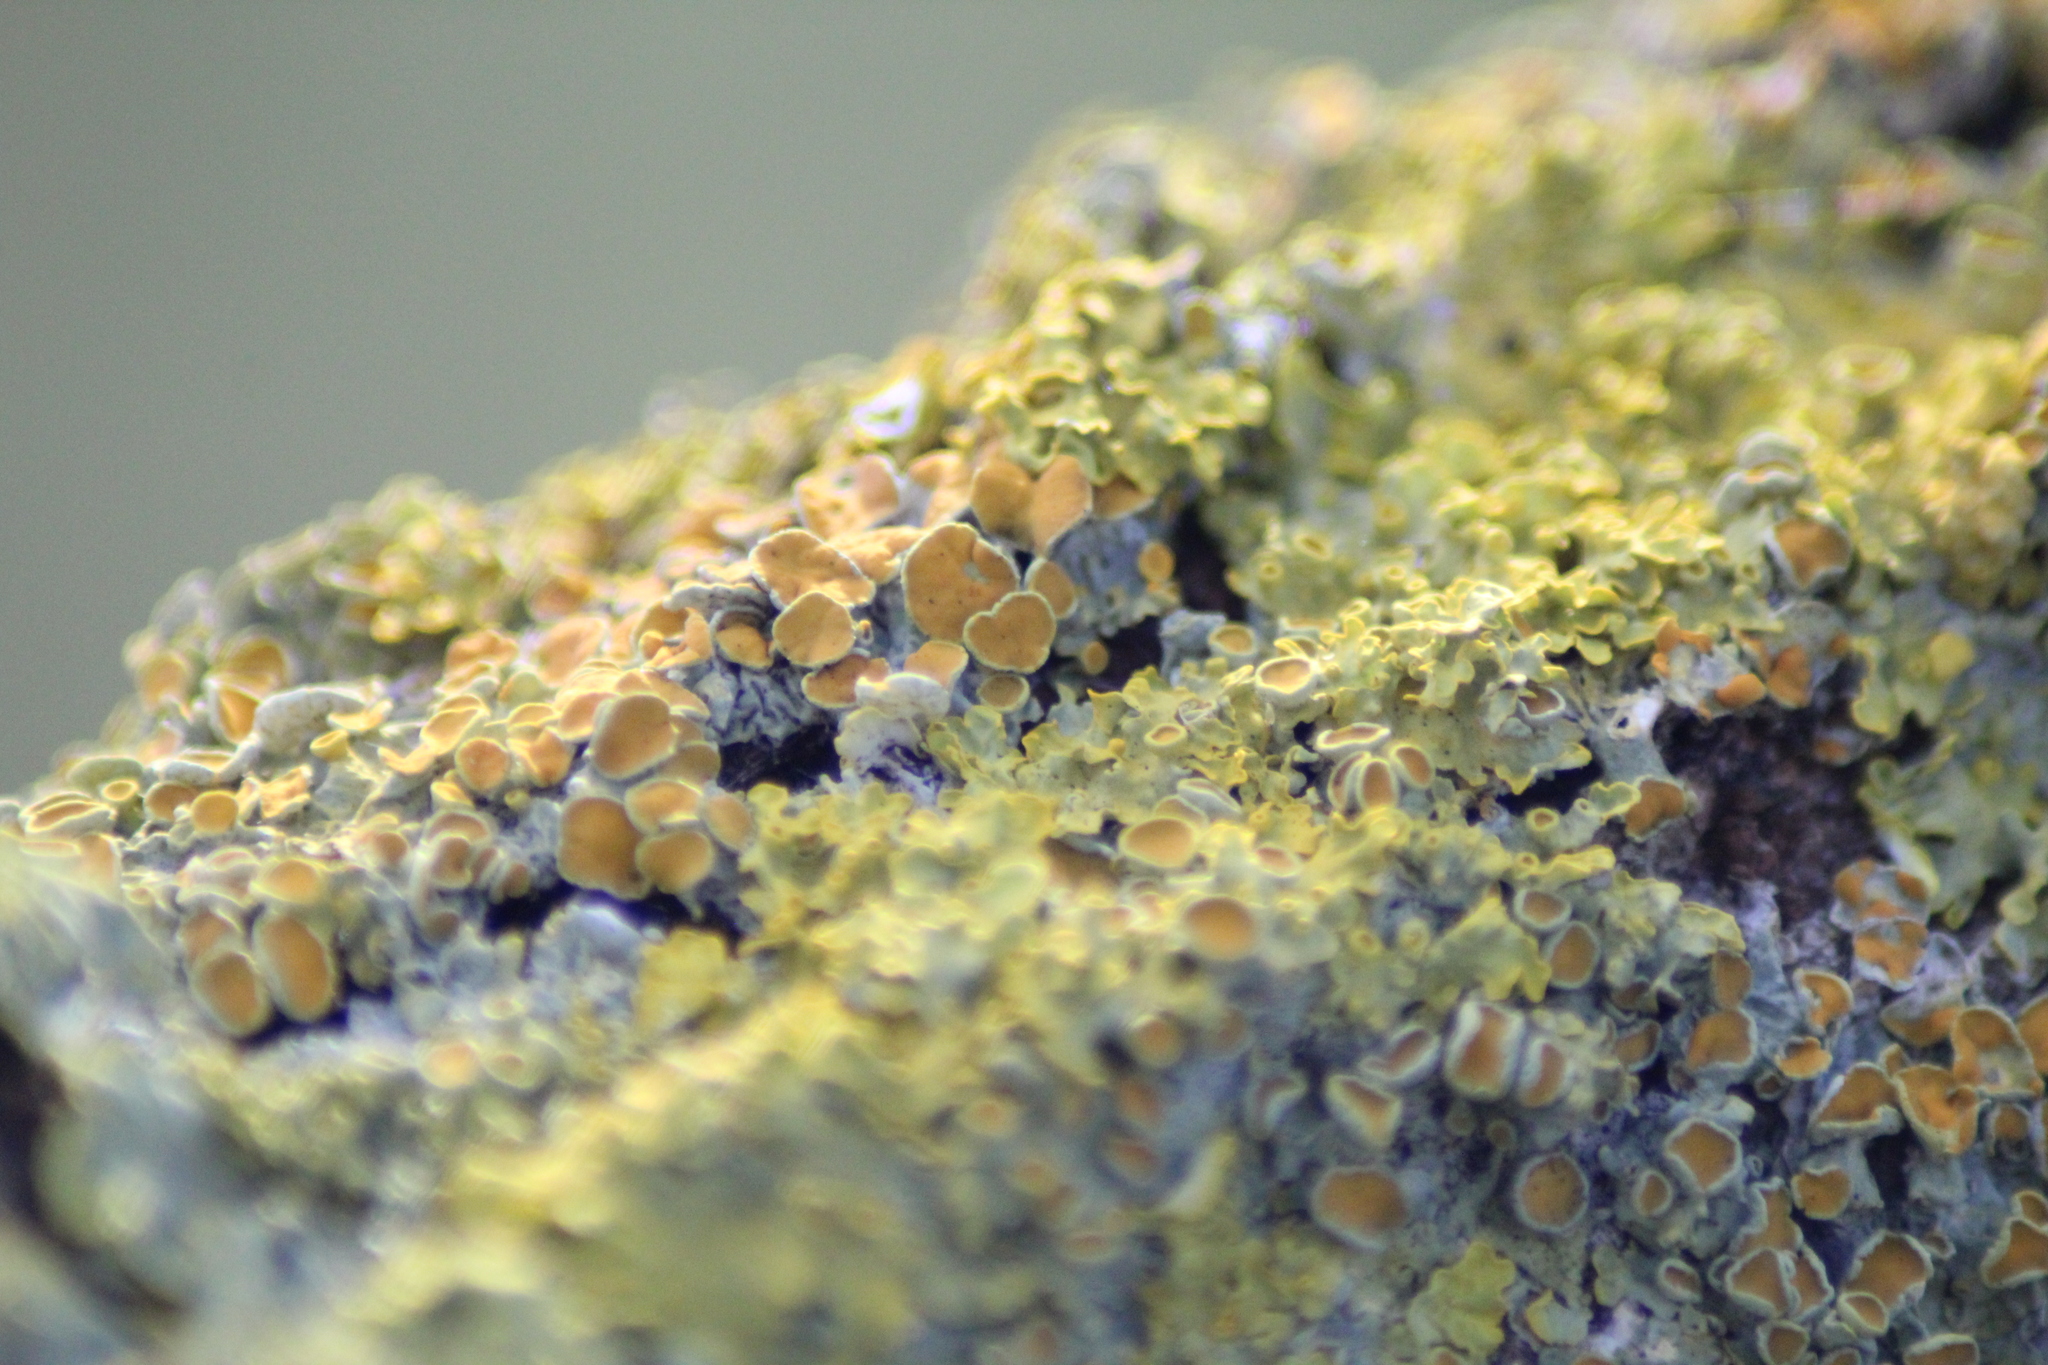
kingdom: Fungi
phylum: Ascomycota
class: Lecanoromycetes
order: Teloschistales
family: Teloschistaceae
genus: Xanthoria
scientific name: Xanthoria parietina
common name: Common orange lichen
